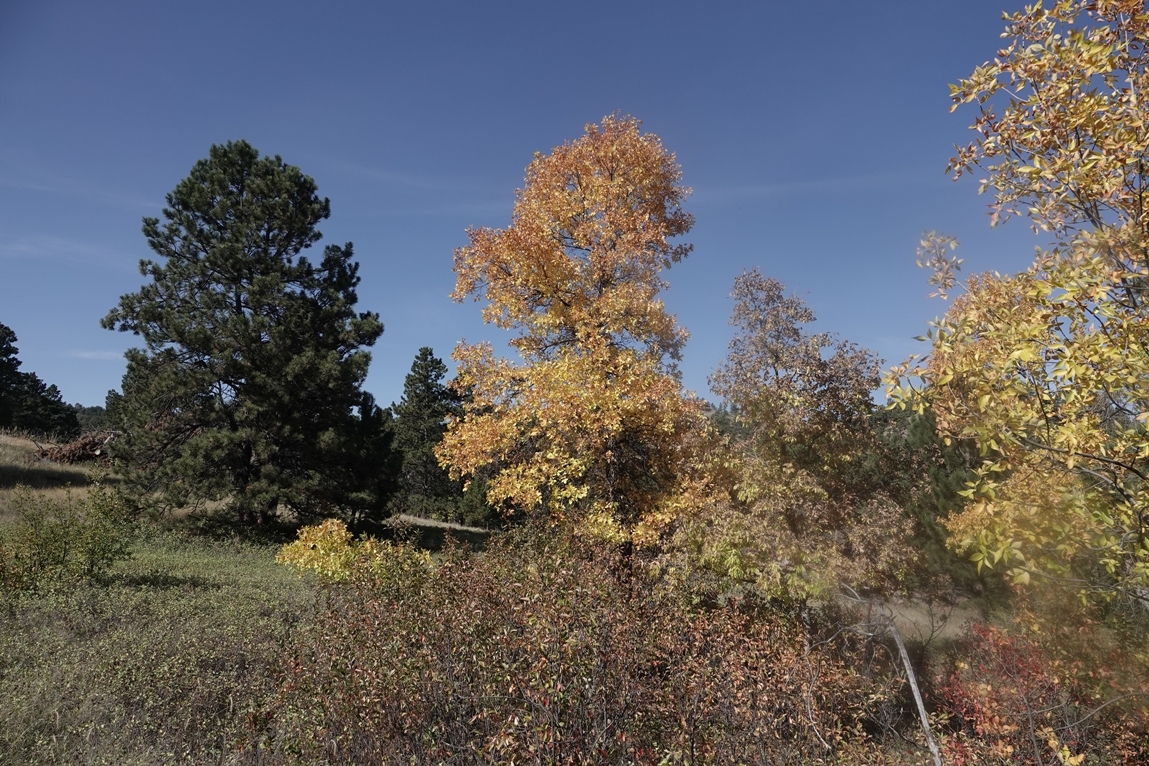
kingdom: Plantae
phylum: Tracheophyta
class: Magnoliopsida
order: Lamiales
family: Oleaceae
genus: Fraxinus
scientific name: Fraxinus pennsylvanica
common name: Green ash
